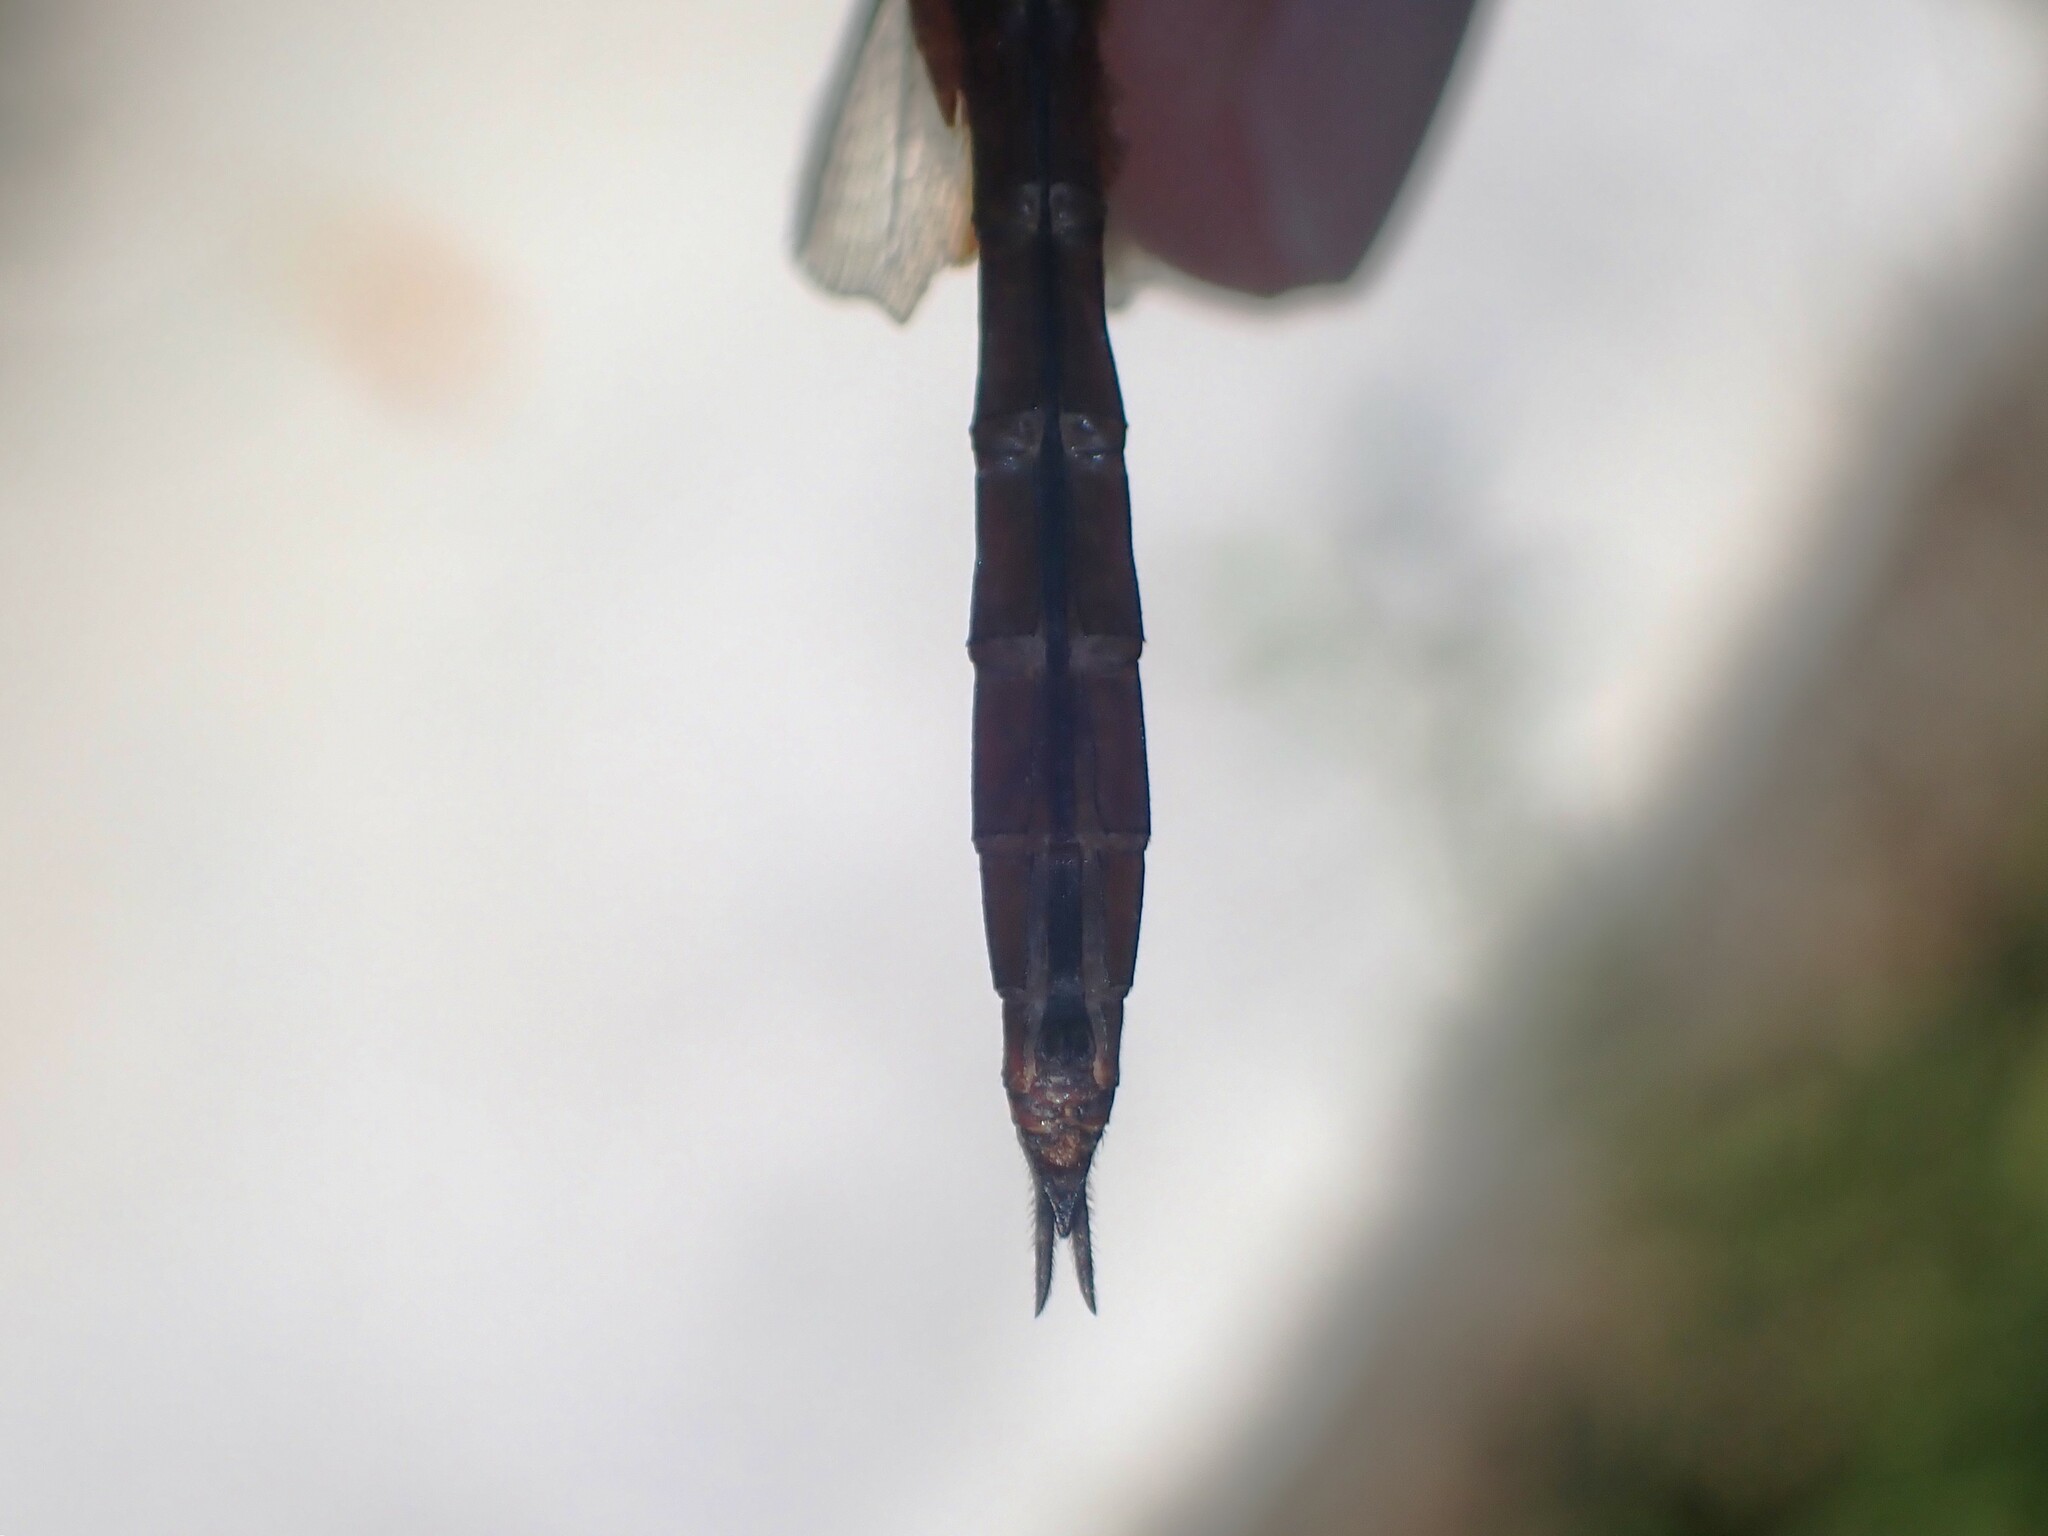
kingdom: Animalia
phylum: Arthropoda
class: Insecta
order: Odonata
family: Libellulidae
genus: Tramea
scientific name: Tramea abdominalis
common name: Vermilion saddlebags
